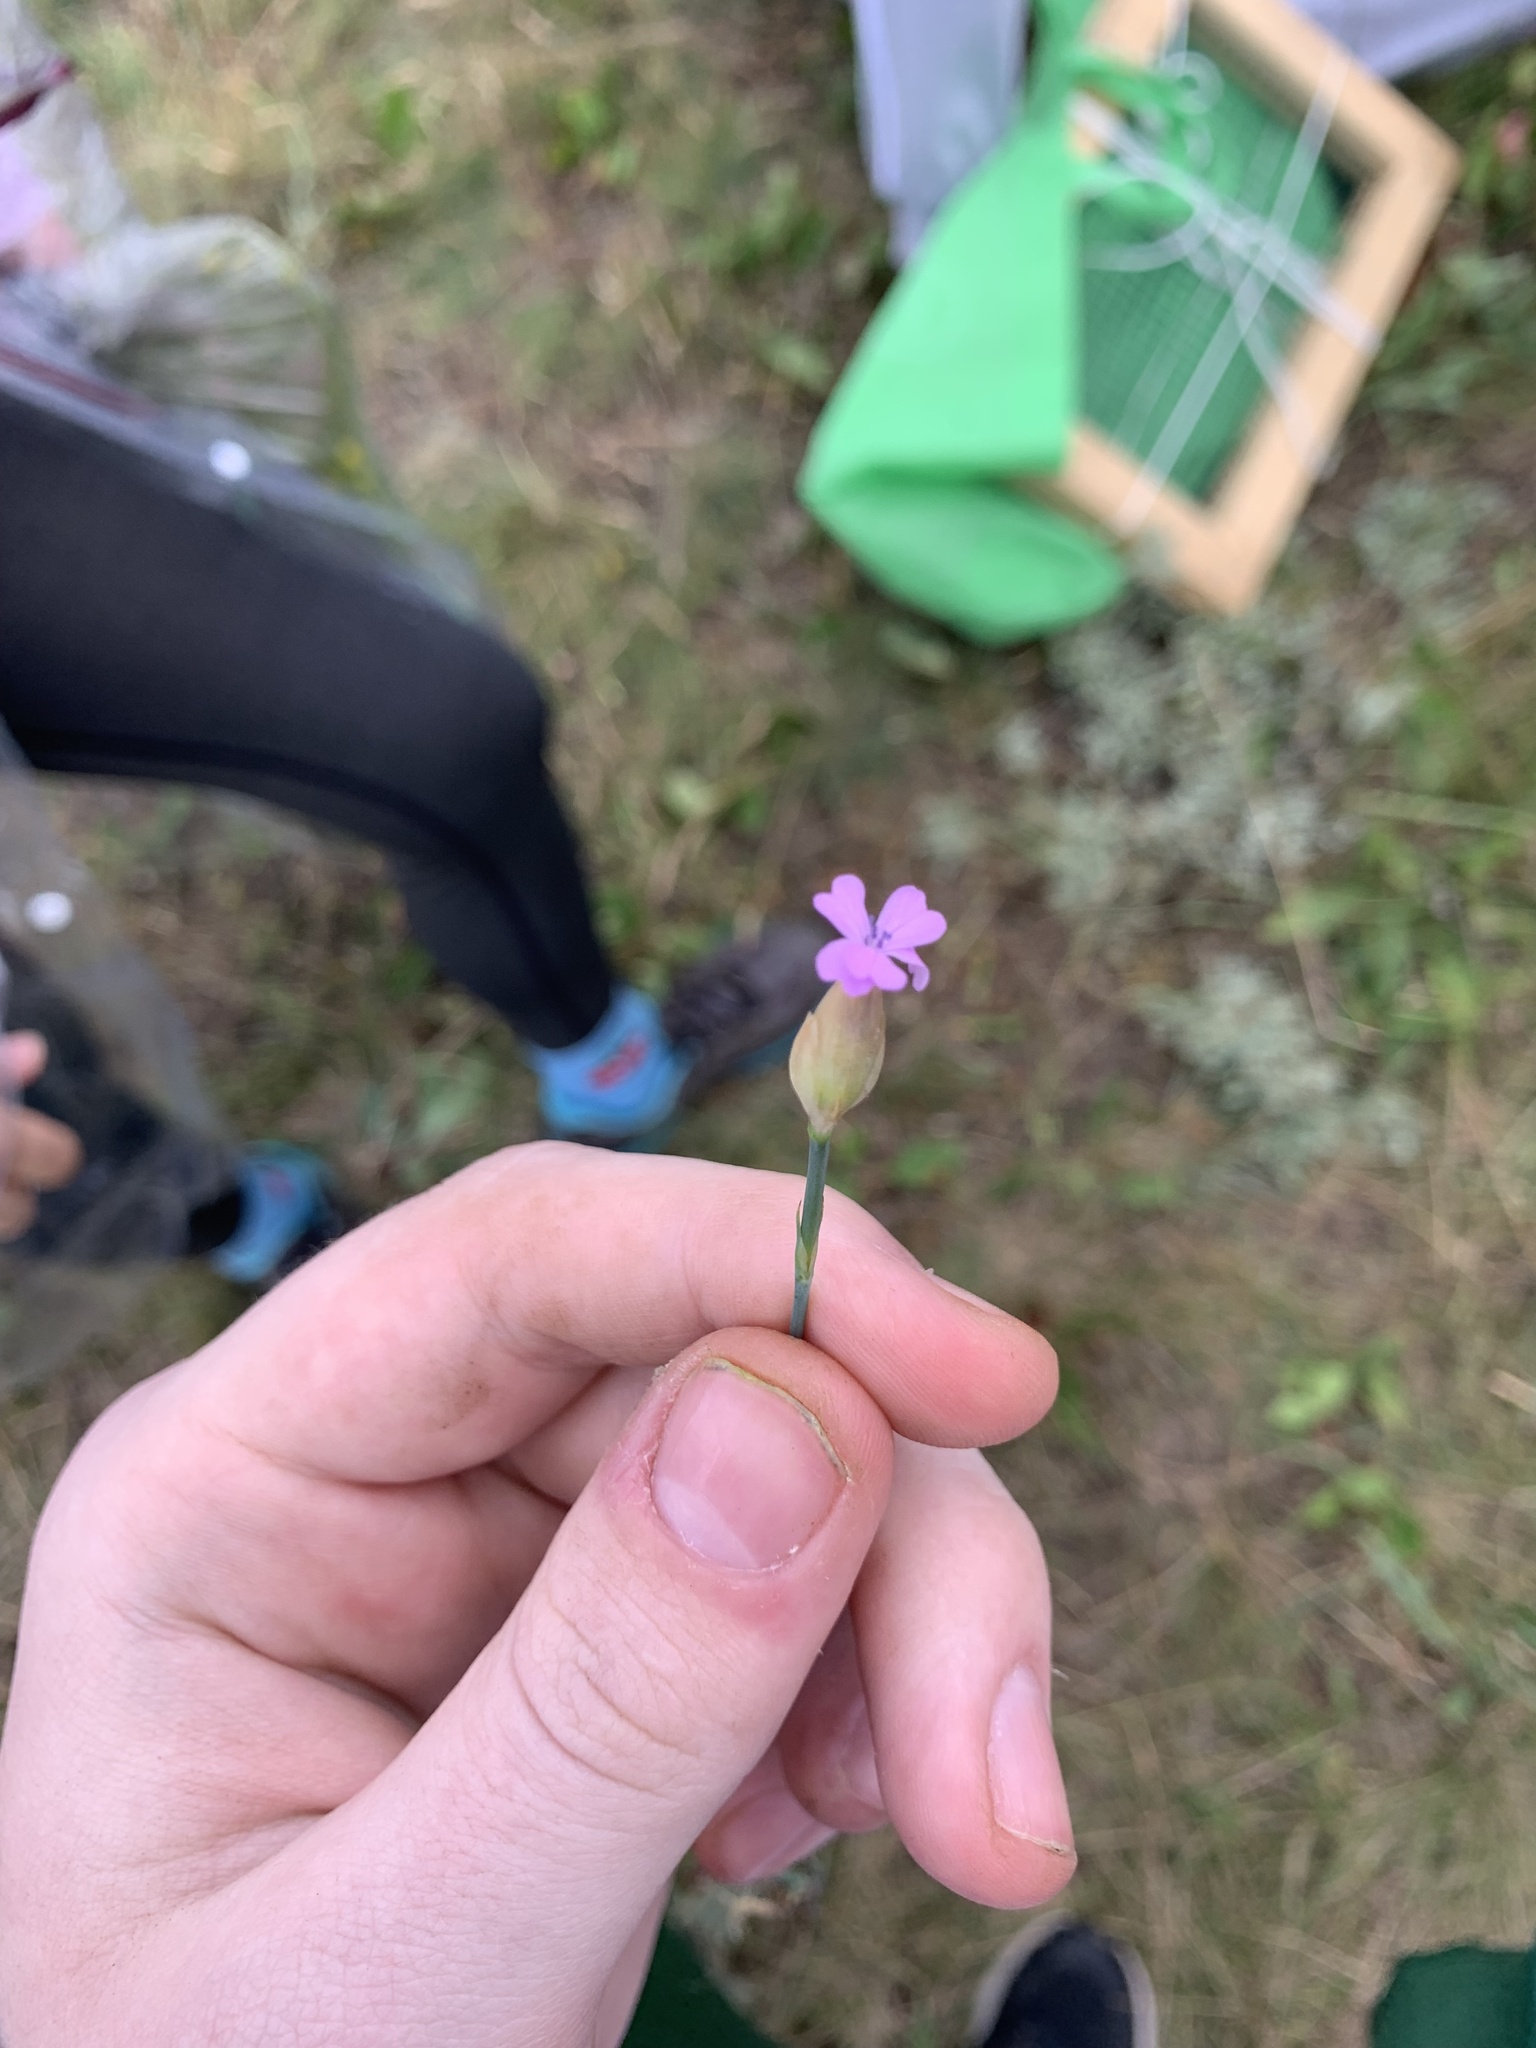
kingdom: Plantae
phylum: Tracheophyta
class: Magnoliopsida
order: Caryophyllales
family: Caryophyllaceae
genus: Petrorhagia
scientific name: Petrorhagia prolifera
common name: Proliferous pink
